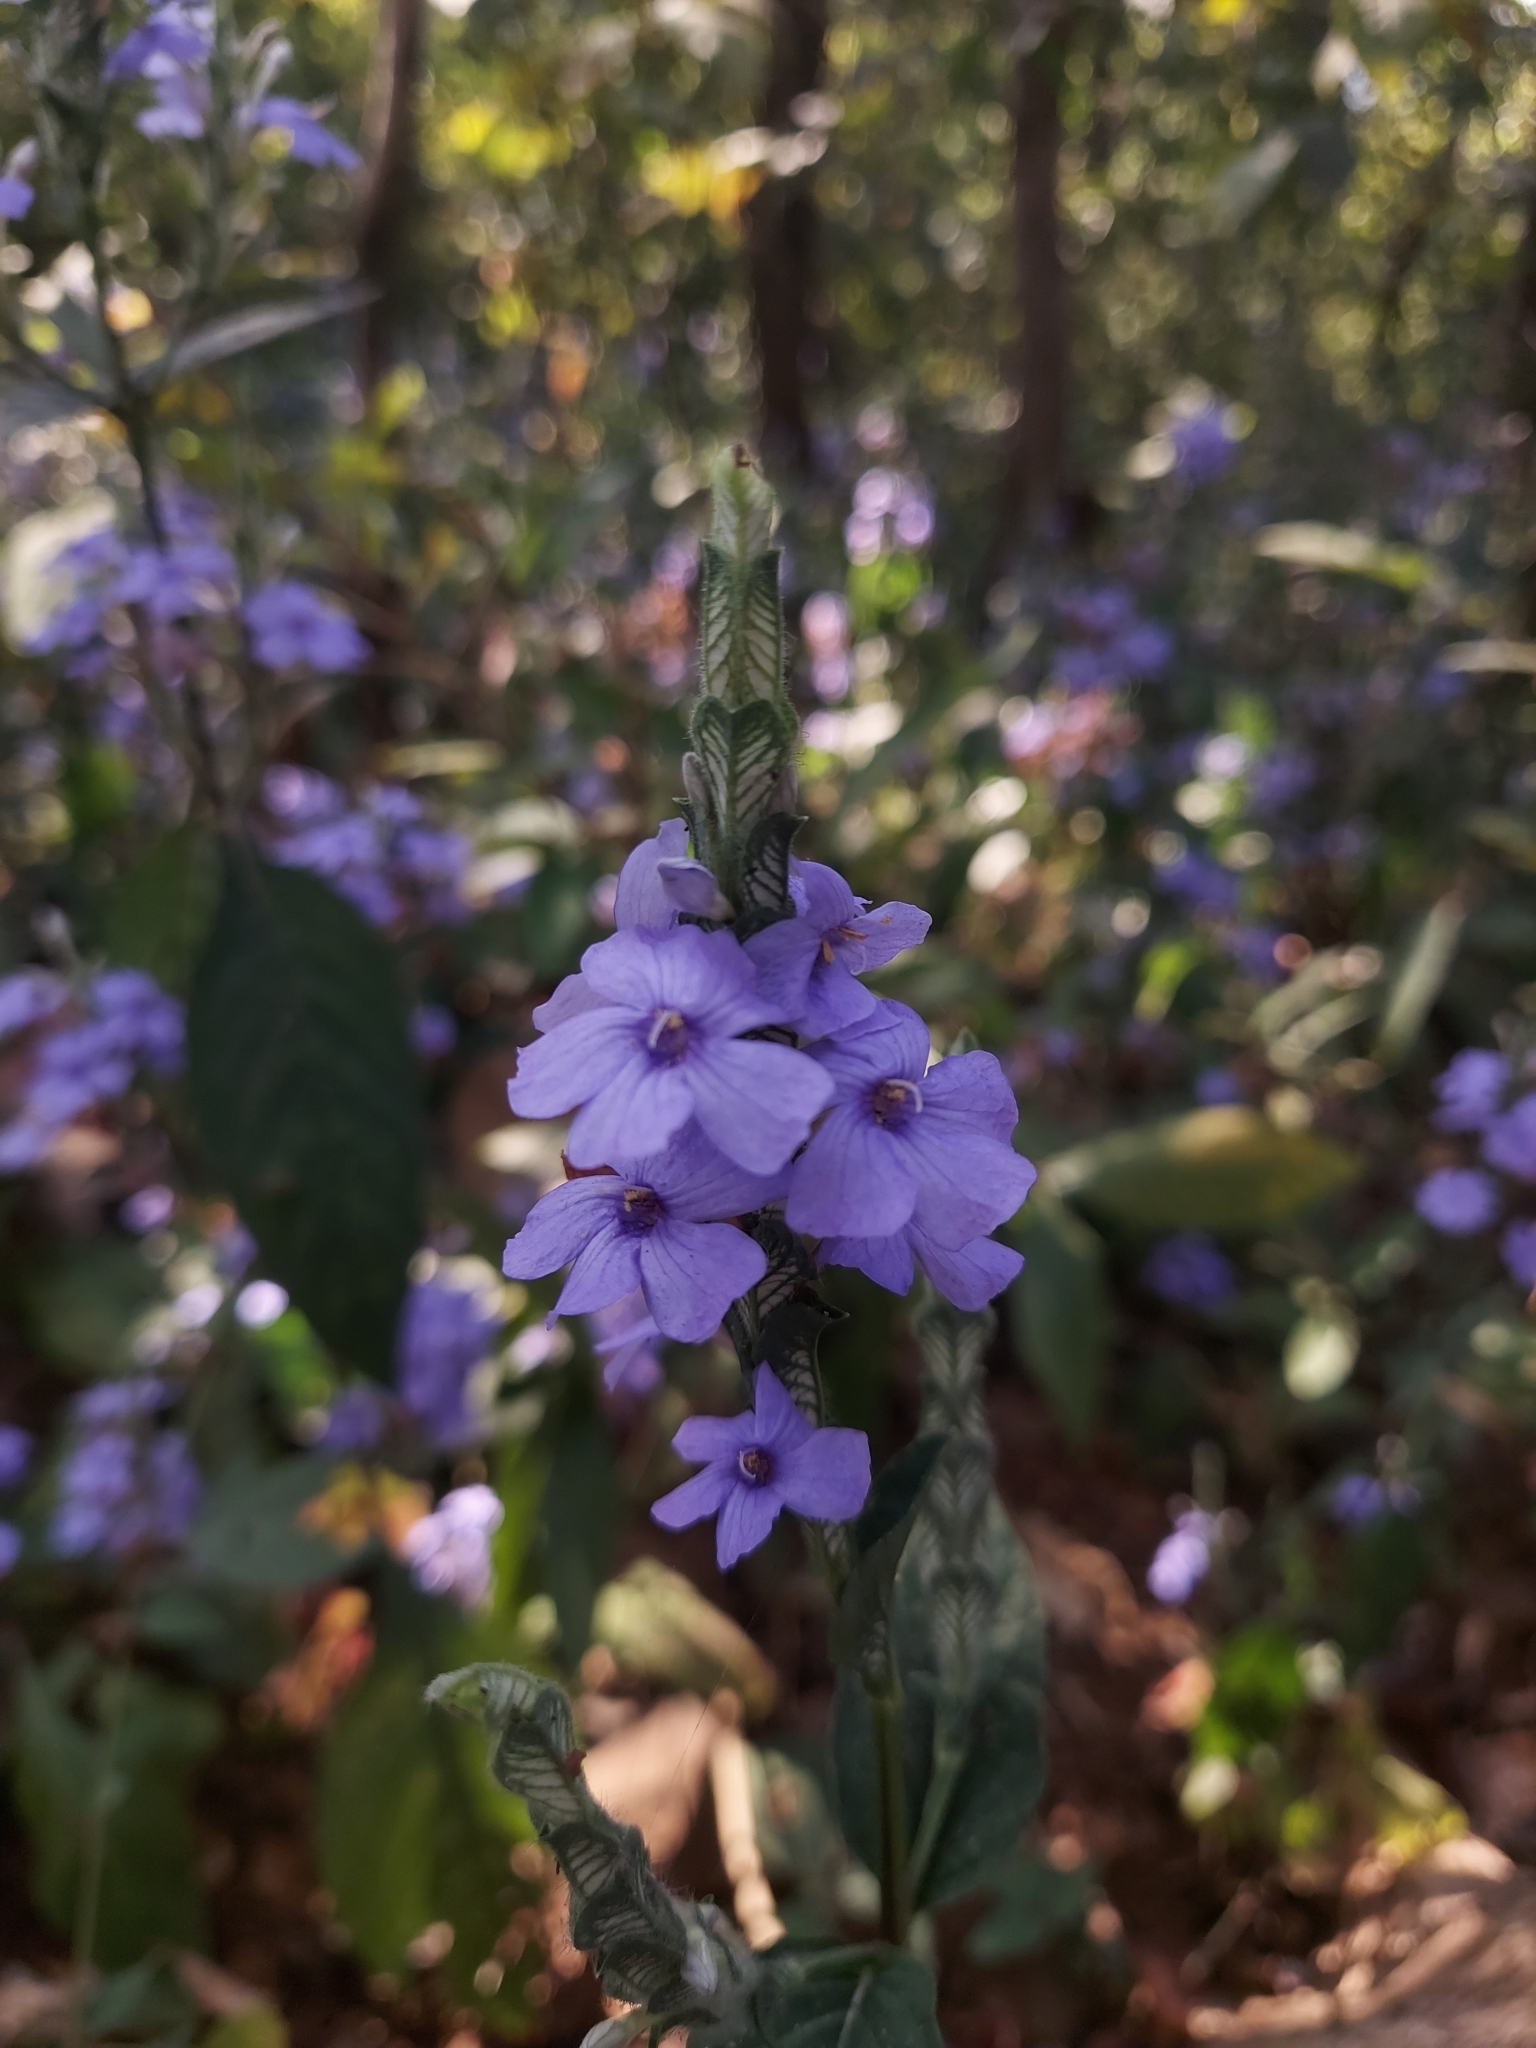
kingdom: Plantae
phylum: Tracheophyta
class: Magnoliopsida
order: Lamiales
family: Acanthaceae
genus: Eranthemum
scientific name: Eranthemum pulchellum
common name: Blue-sage
